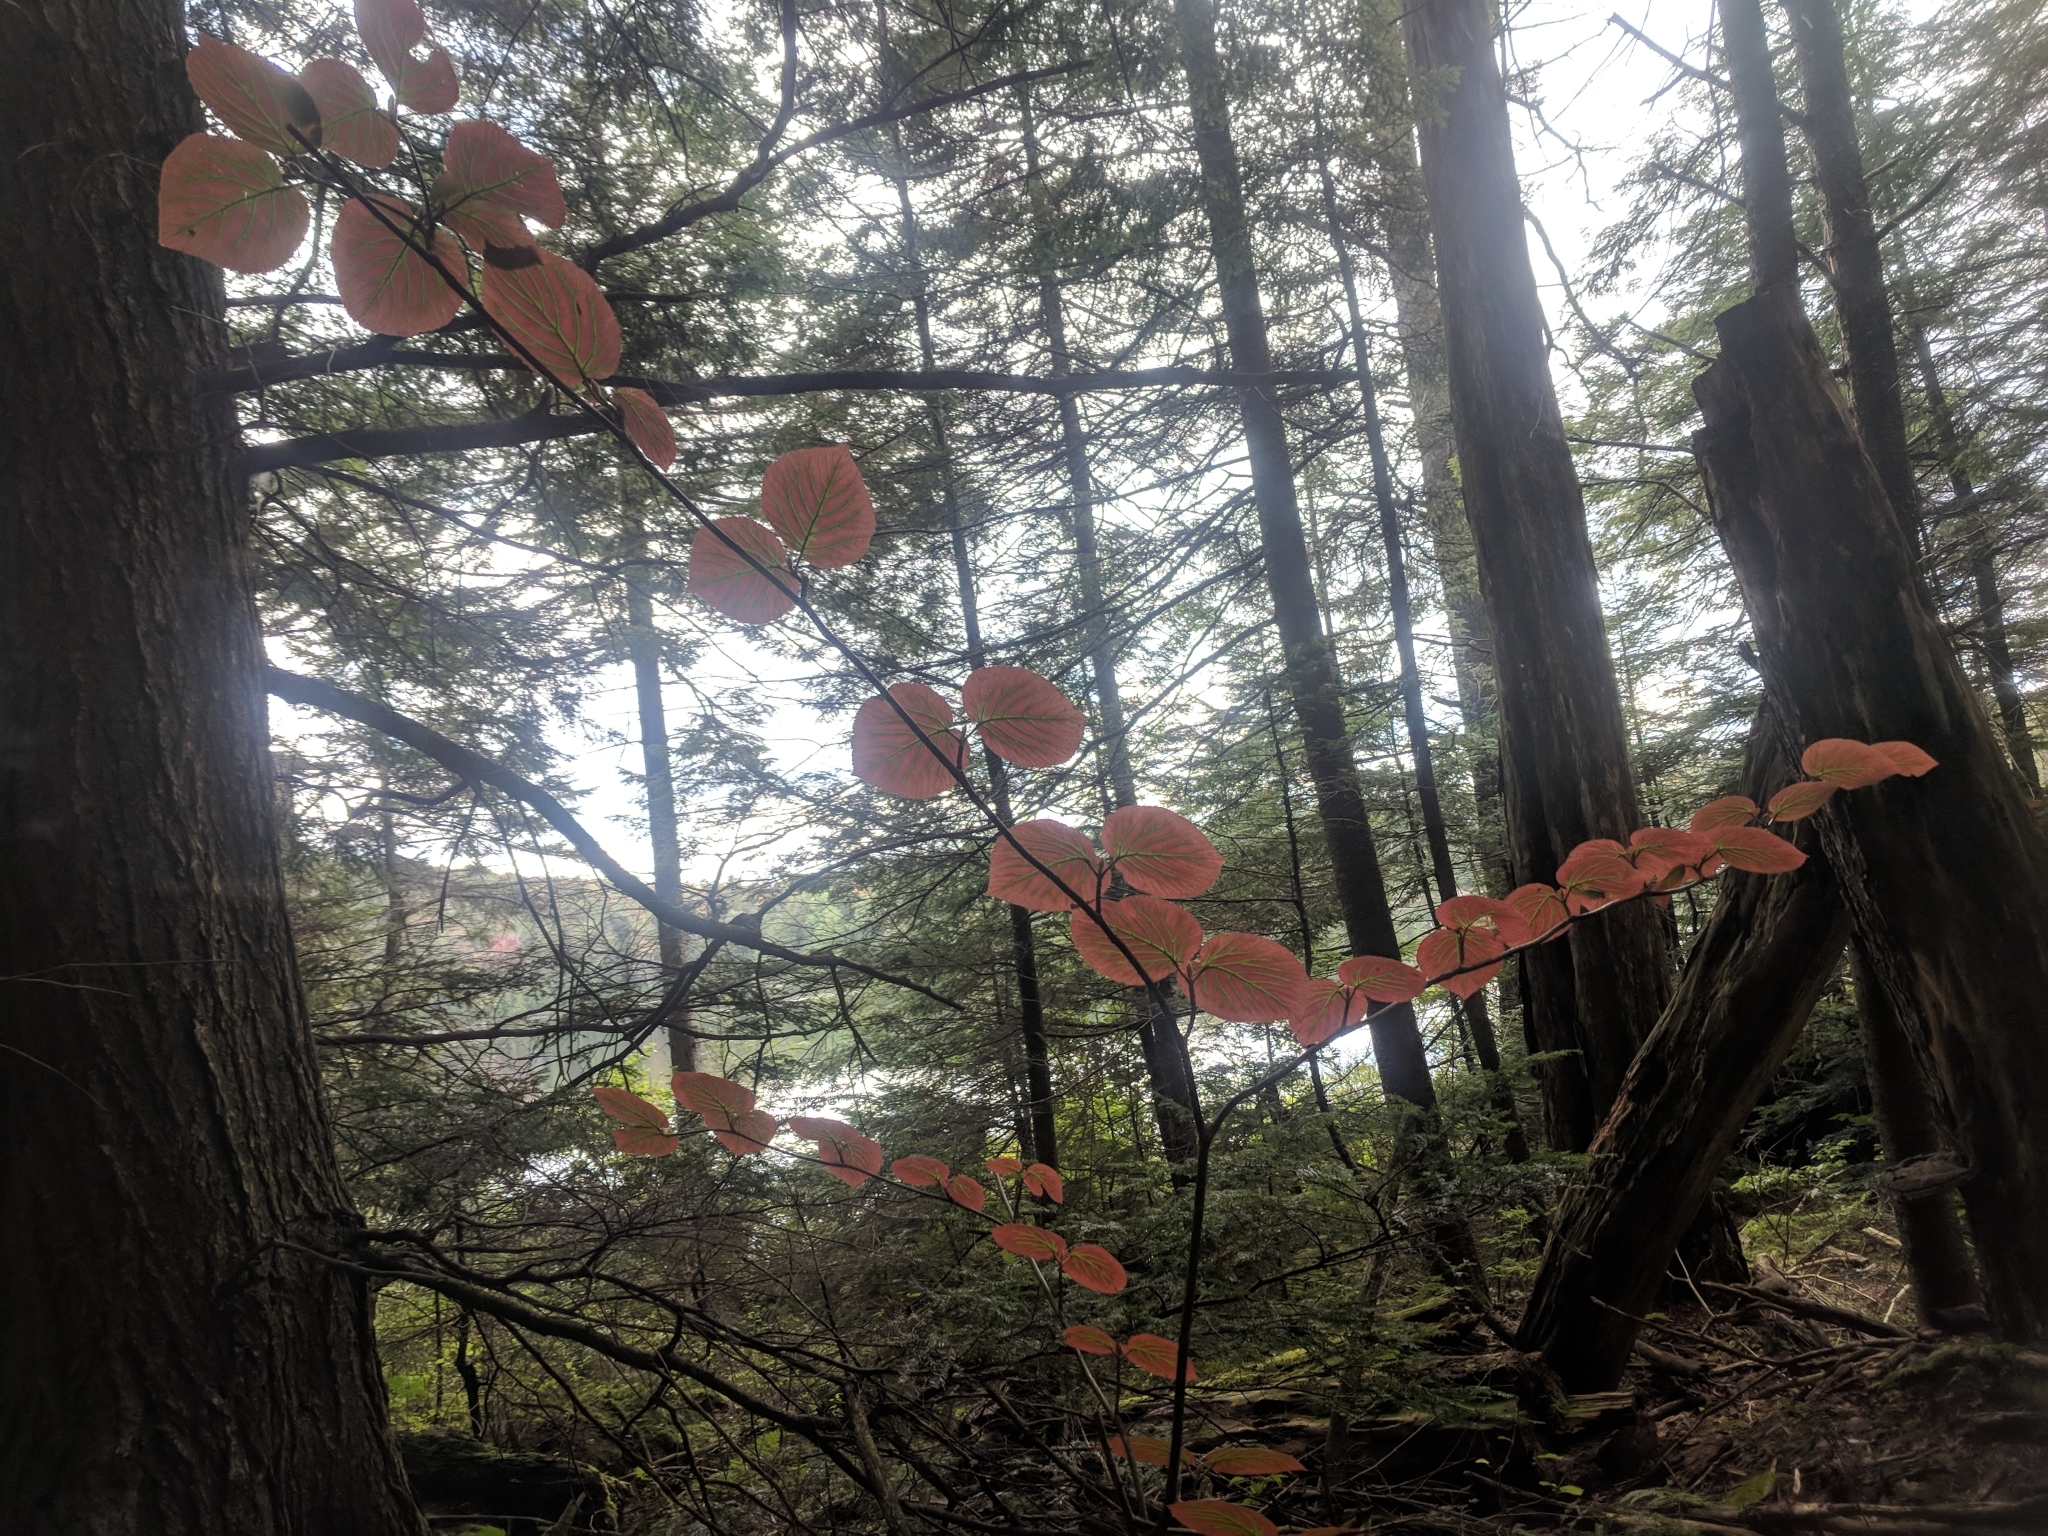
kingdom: Plantae
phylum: Tracheophyta
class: Magnoliopsida
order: Dipsacales
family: Viburnaceae
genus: Viburnum
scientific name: Viburnum lantanoides
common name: Hobblebush
